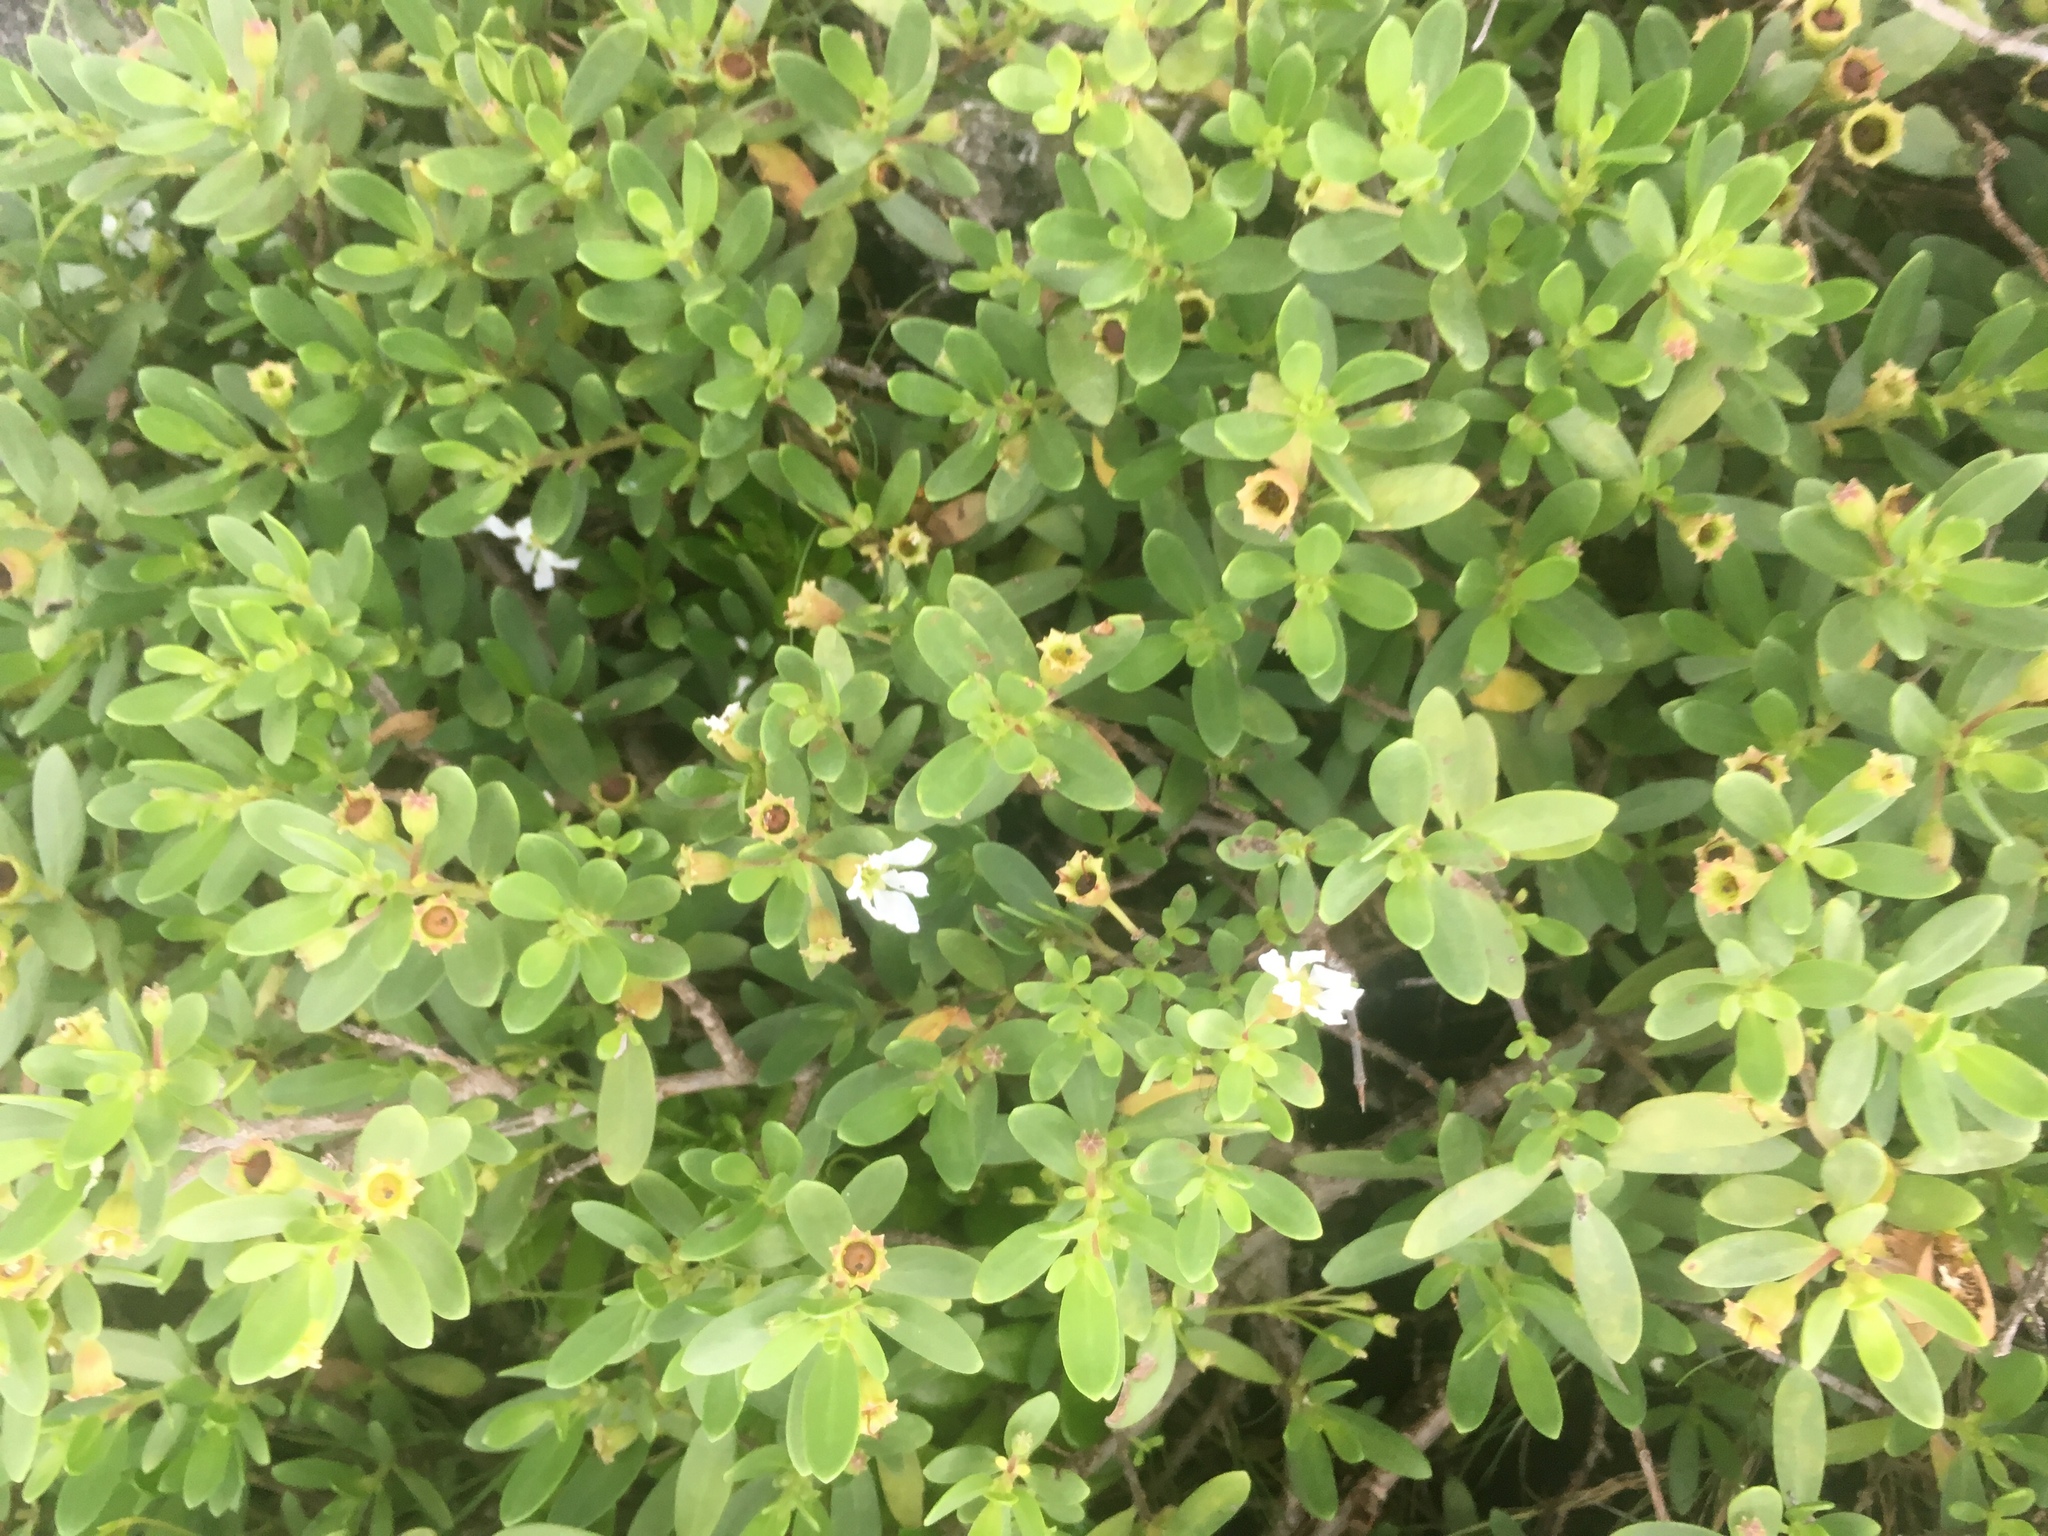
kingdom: Plantae
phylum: Tracheophyta
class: Magnoliopsida
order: Myrtales
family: Lythraceae
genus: Pemphis
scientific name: Pemphis acidula
